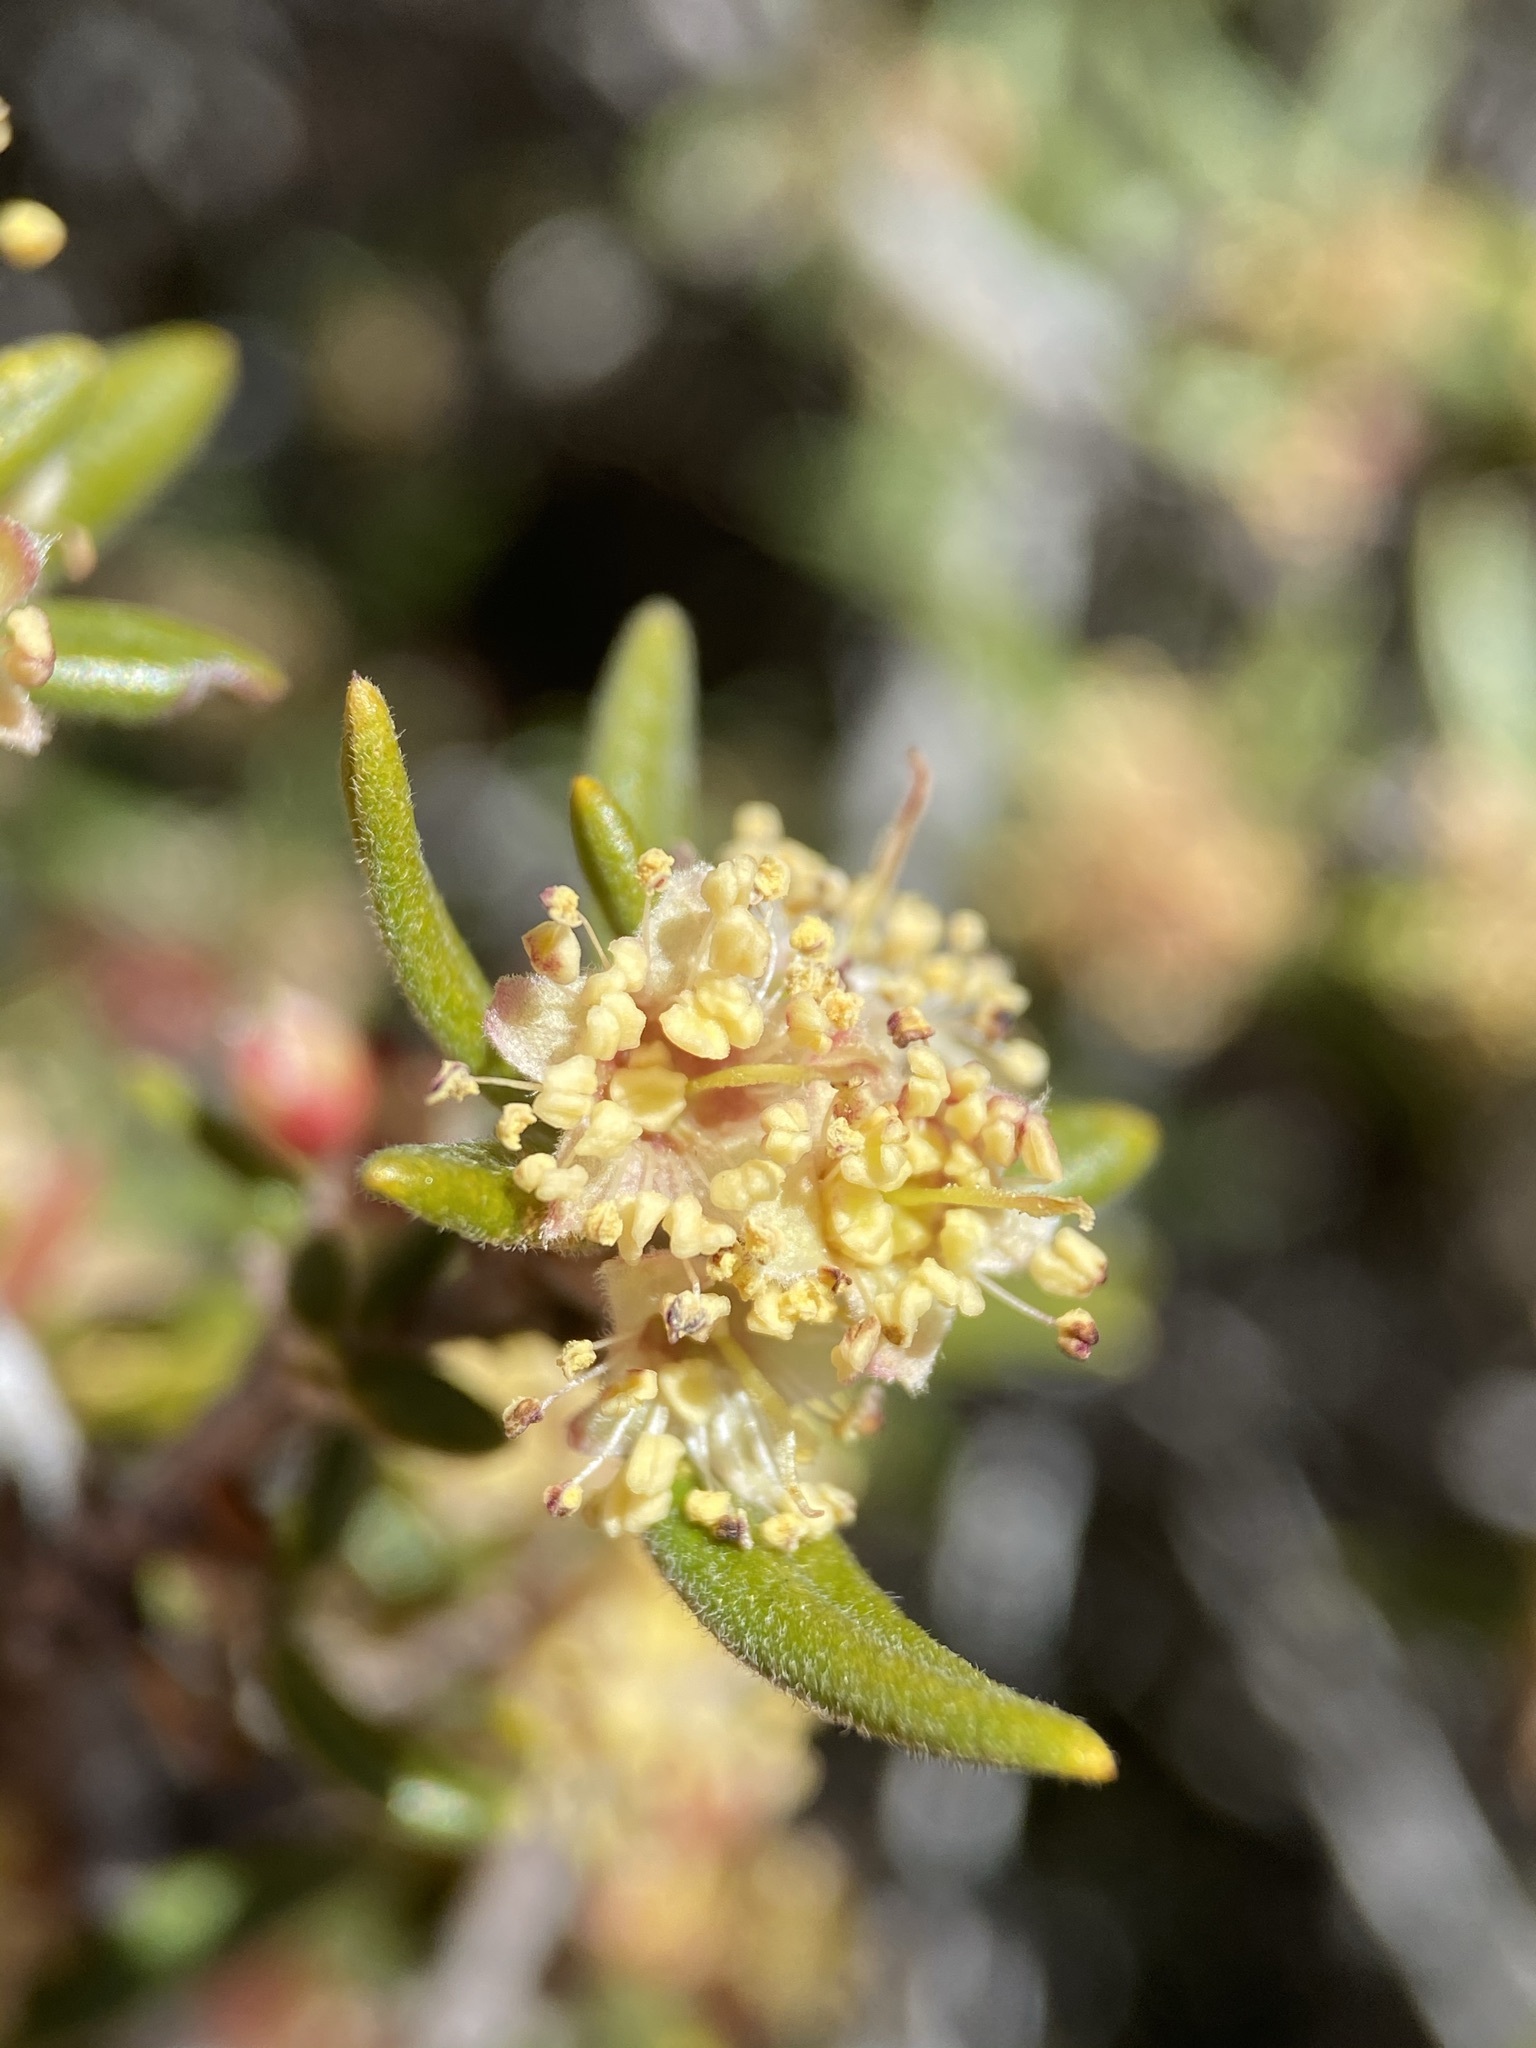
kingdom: Plantae
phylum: Tracheophyta
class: Magnoliopsida
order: Rosales
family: Rosaceae
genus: Cercocarpus
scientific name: Cercocarpus ledifolius
